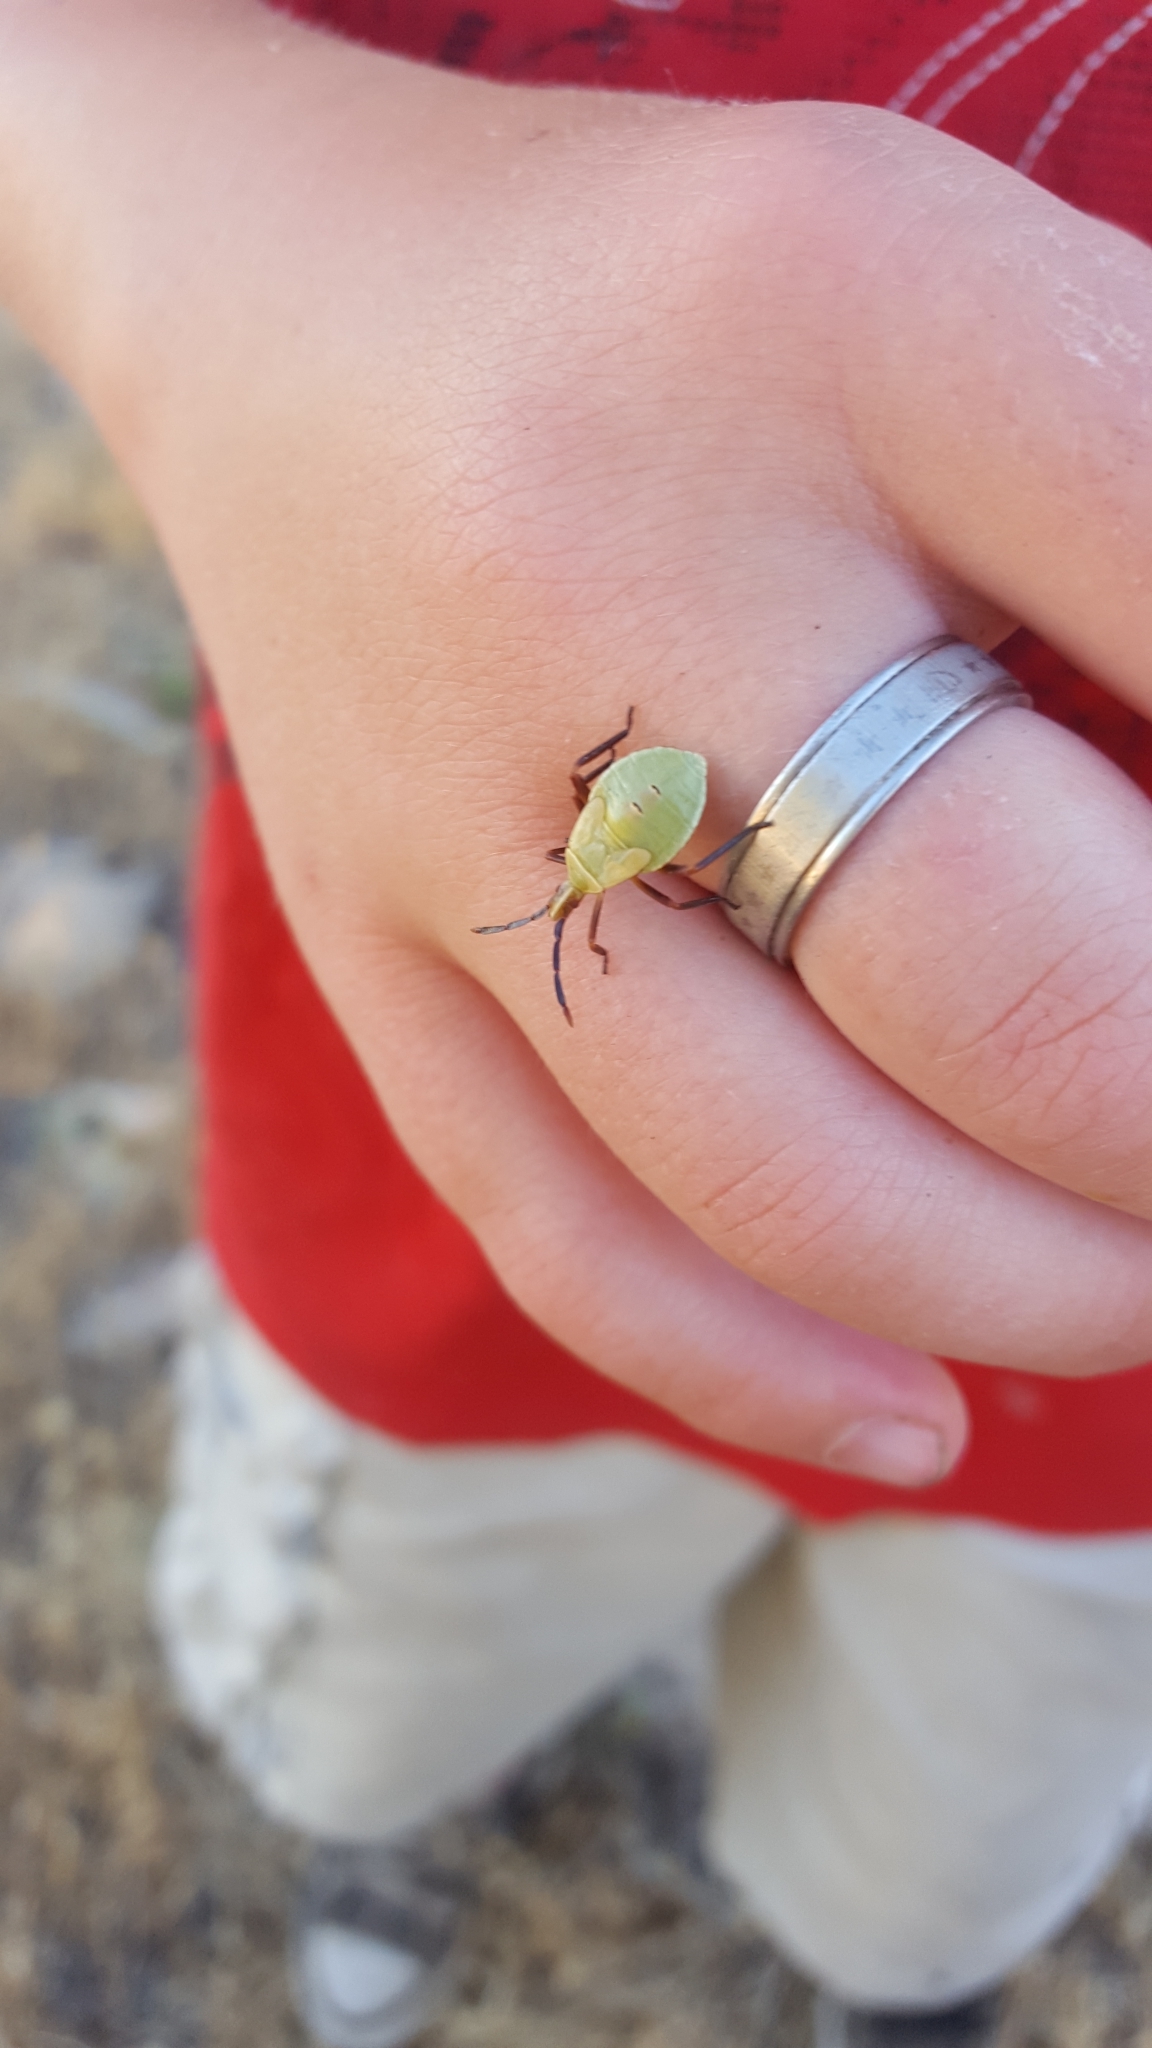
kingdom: Animalia
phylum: Arthropoda
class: Insecta
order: Hemiptera
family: Coreidae
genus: Chelinidea
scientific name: Chelinidea vittiger
